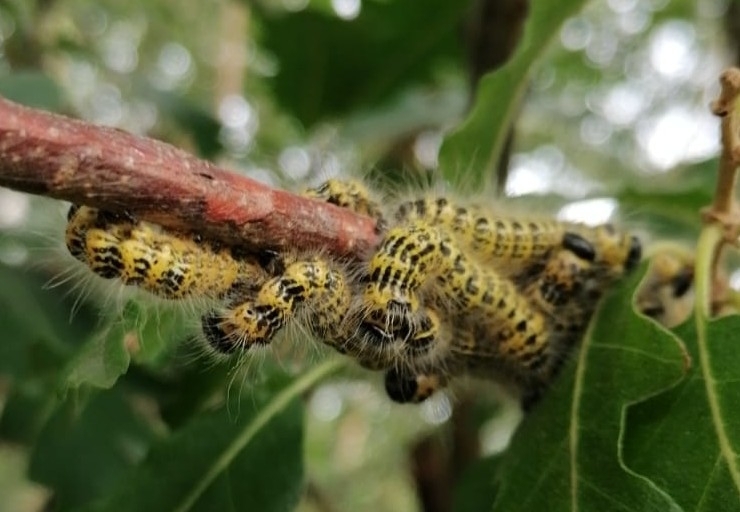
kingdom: Animalia
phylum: Arthropoda
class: Insecta
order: Lepidoptera
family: Notodontidae
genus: Phalera
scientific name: Phalera bucephala
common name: Buff-tip
